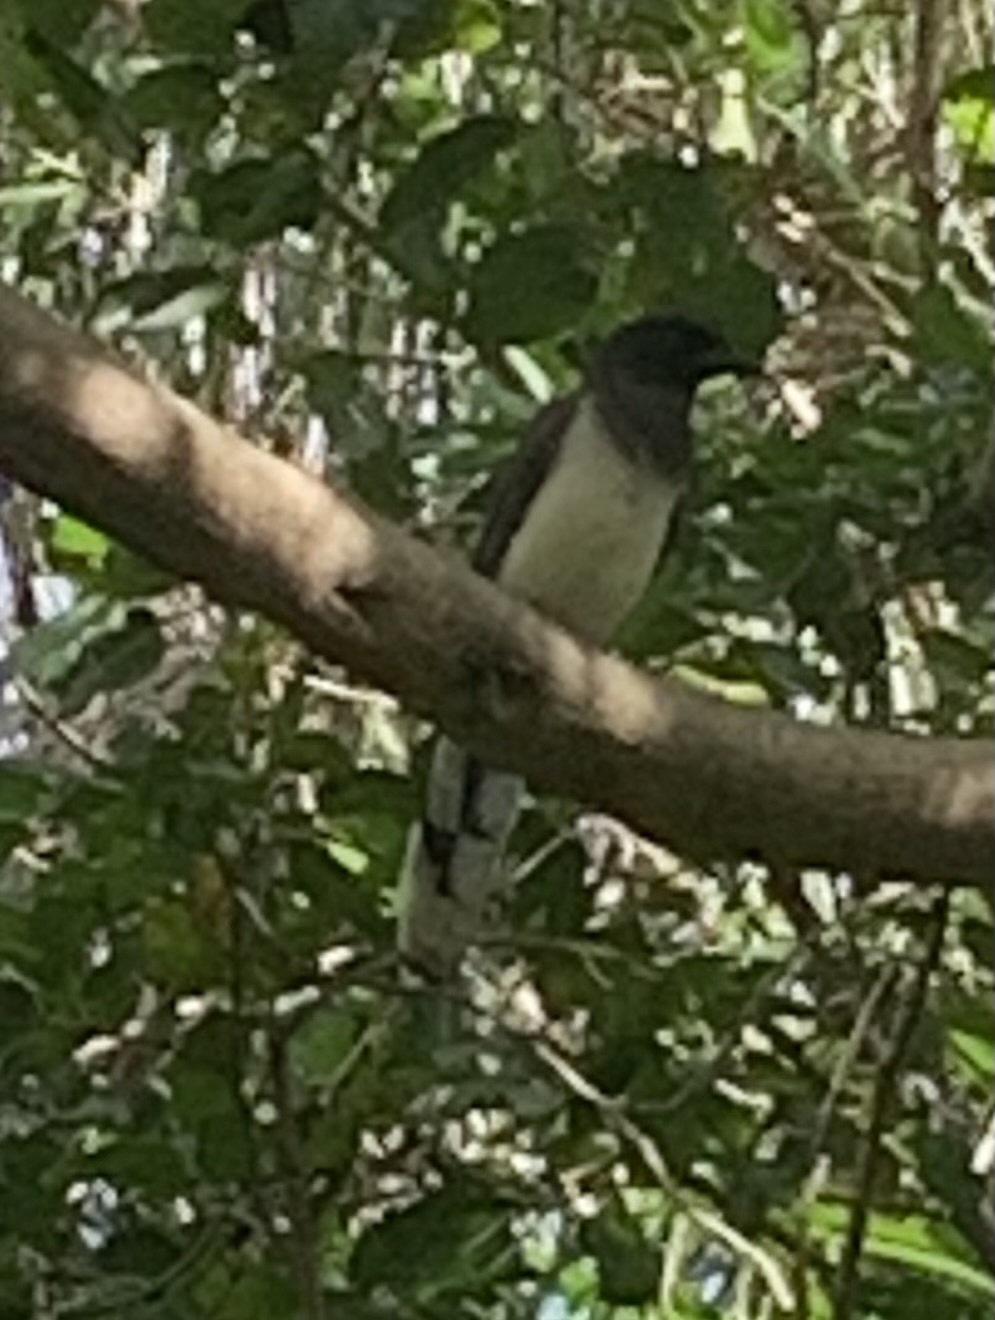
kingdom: Animalia
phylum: Chordata
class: Aves
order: Passeriformes
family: Corvidae
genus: Psilorhinus
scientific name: Psilorhinus morio
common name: Brown jay
